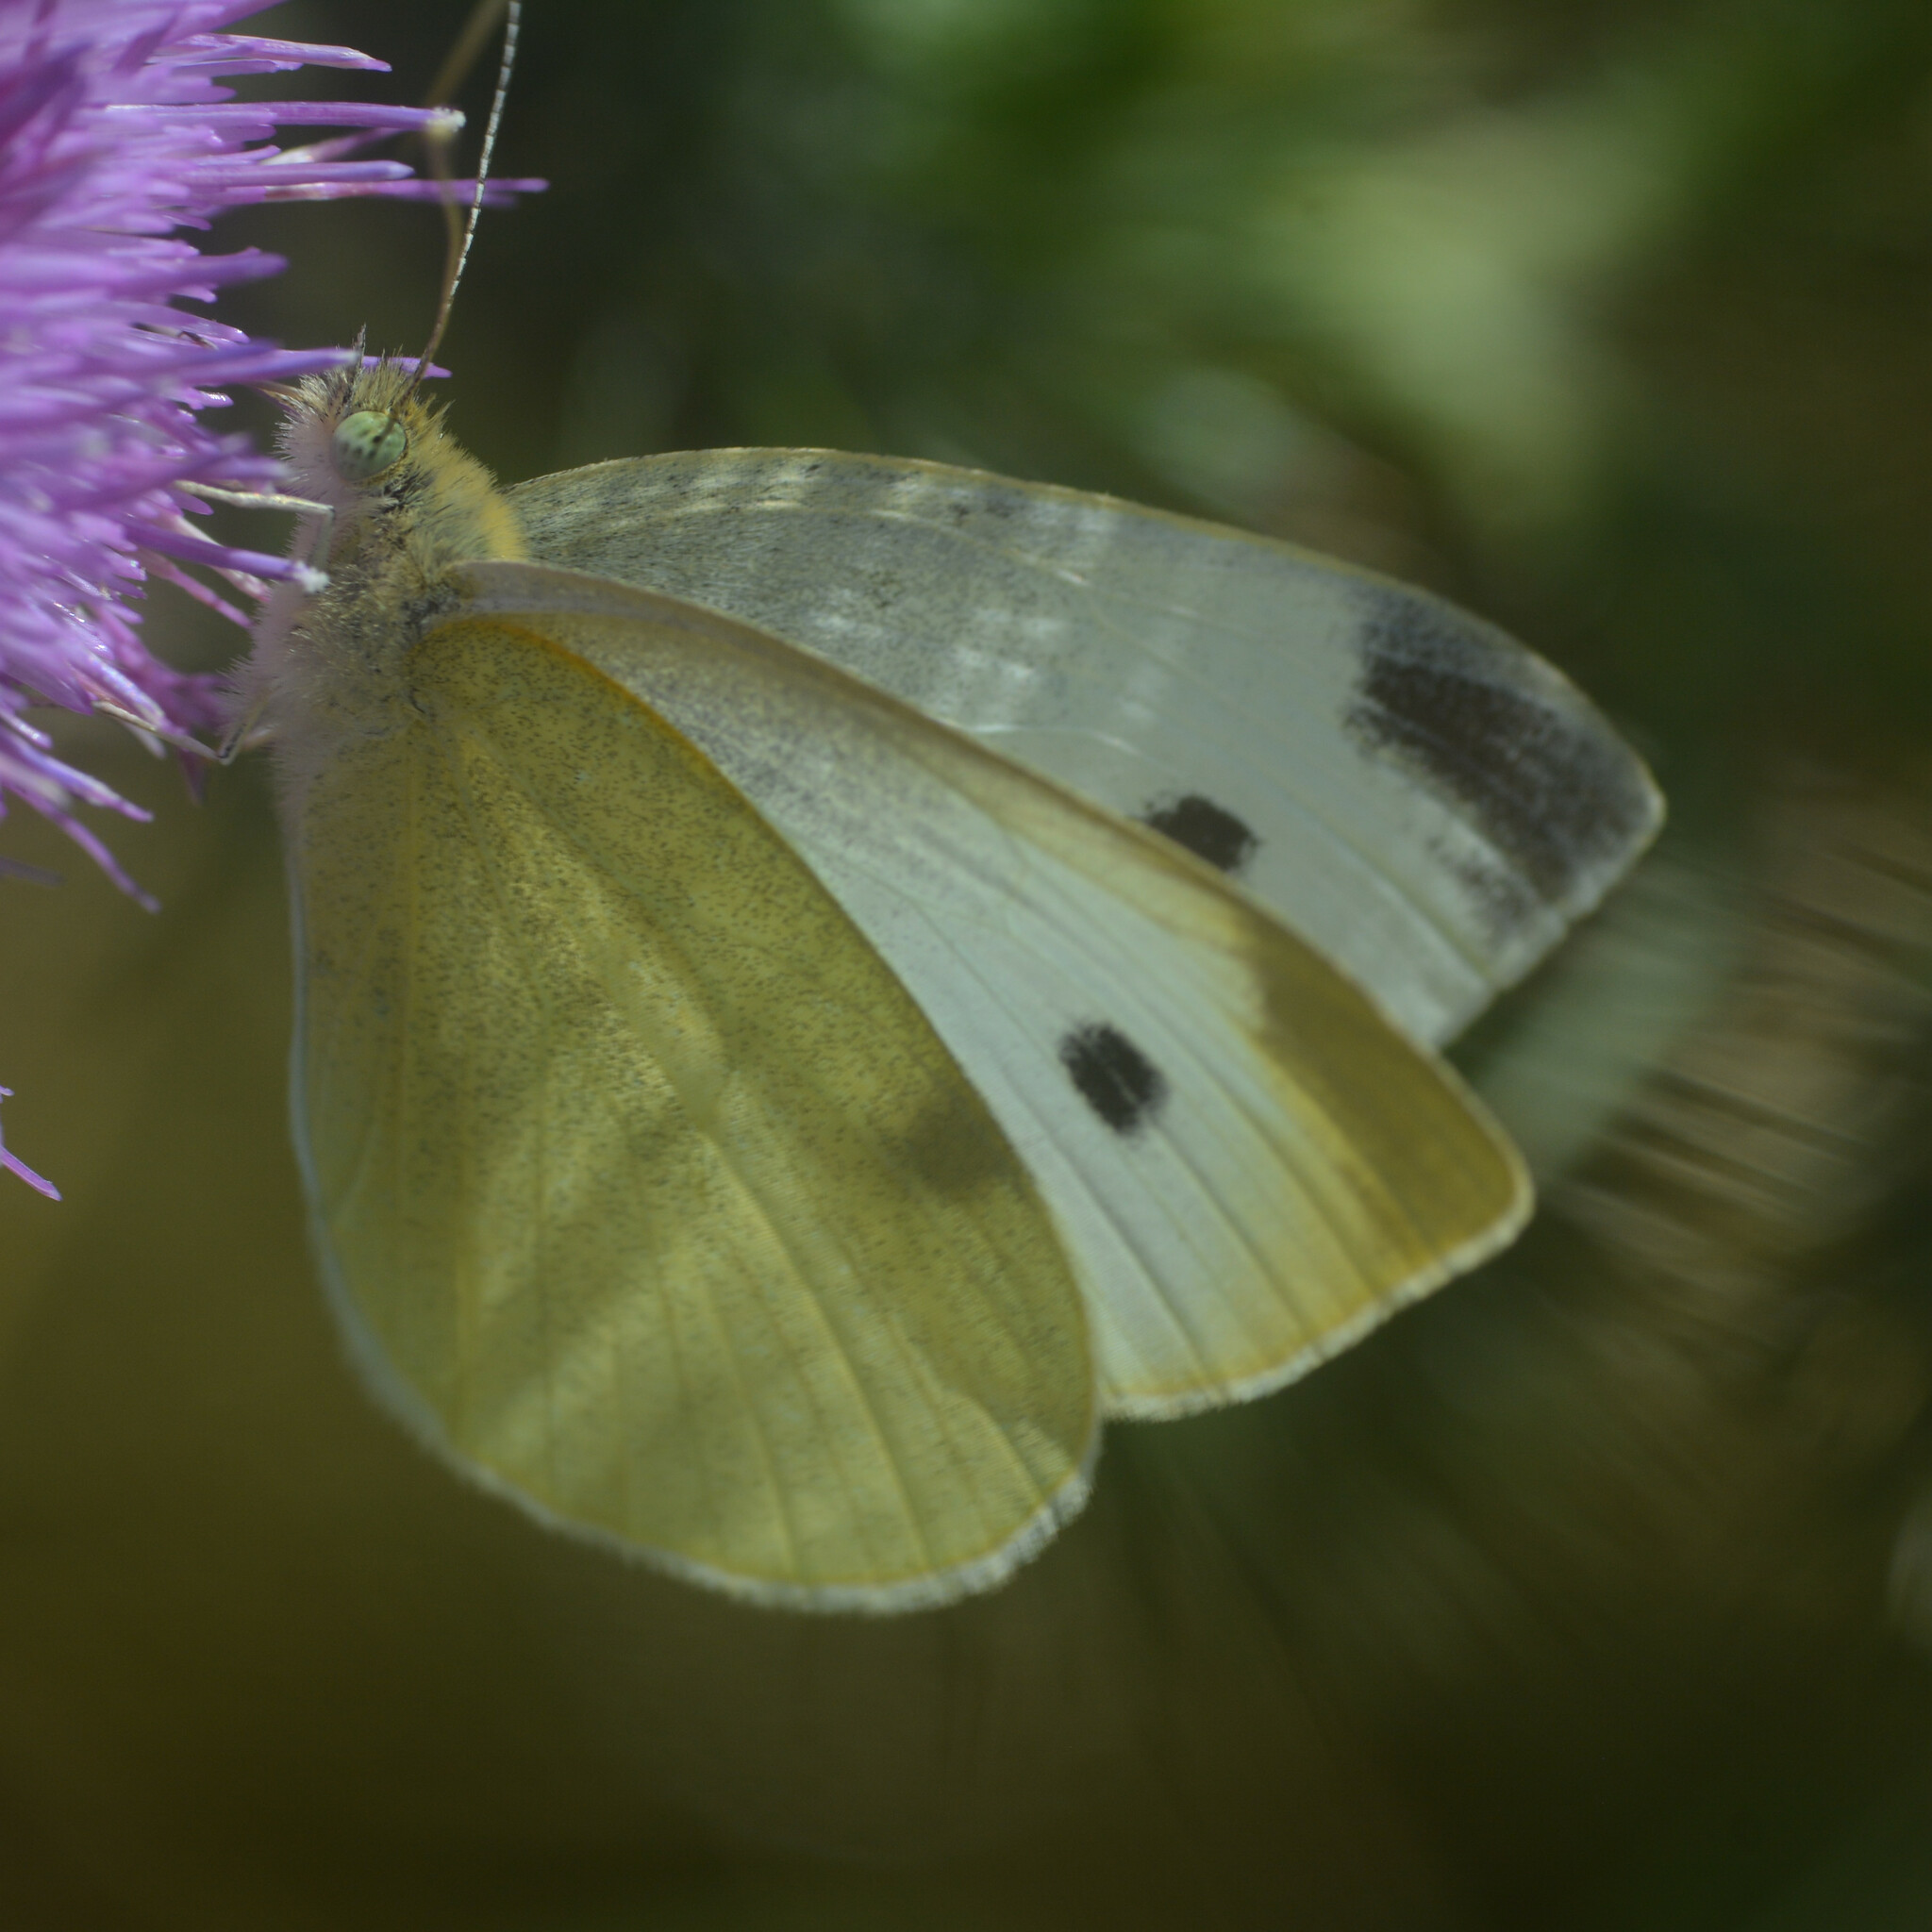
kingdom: Animalia
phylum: Arthropoda
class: Insecta
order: Lepidoptera
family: Pieridae
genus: Pieris
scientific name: Pieris rapae
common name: Small white
